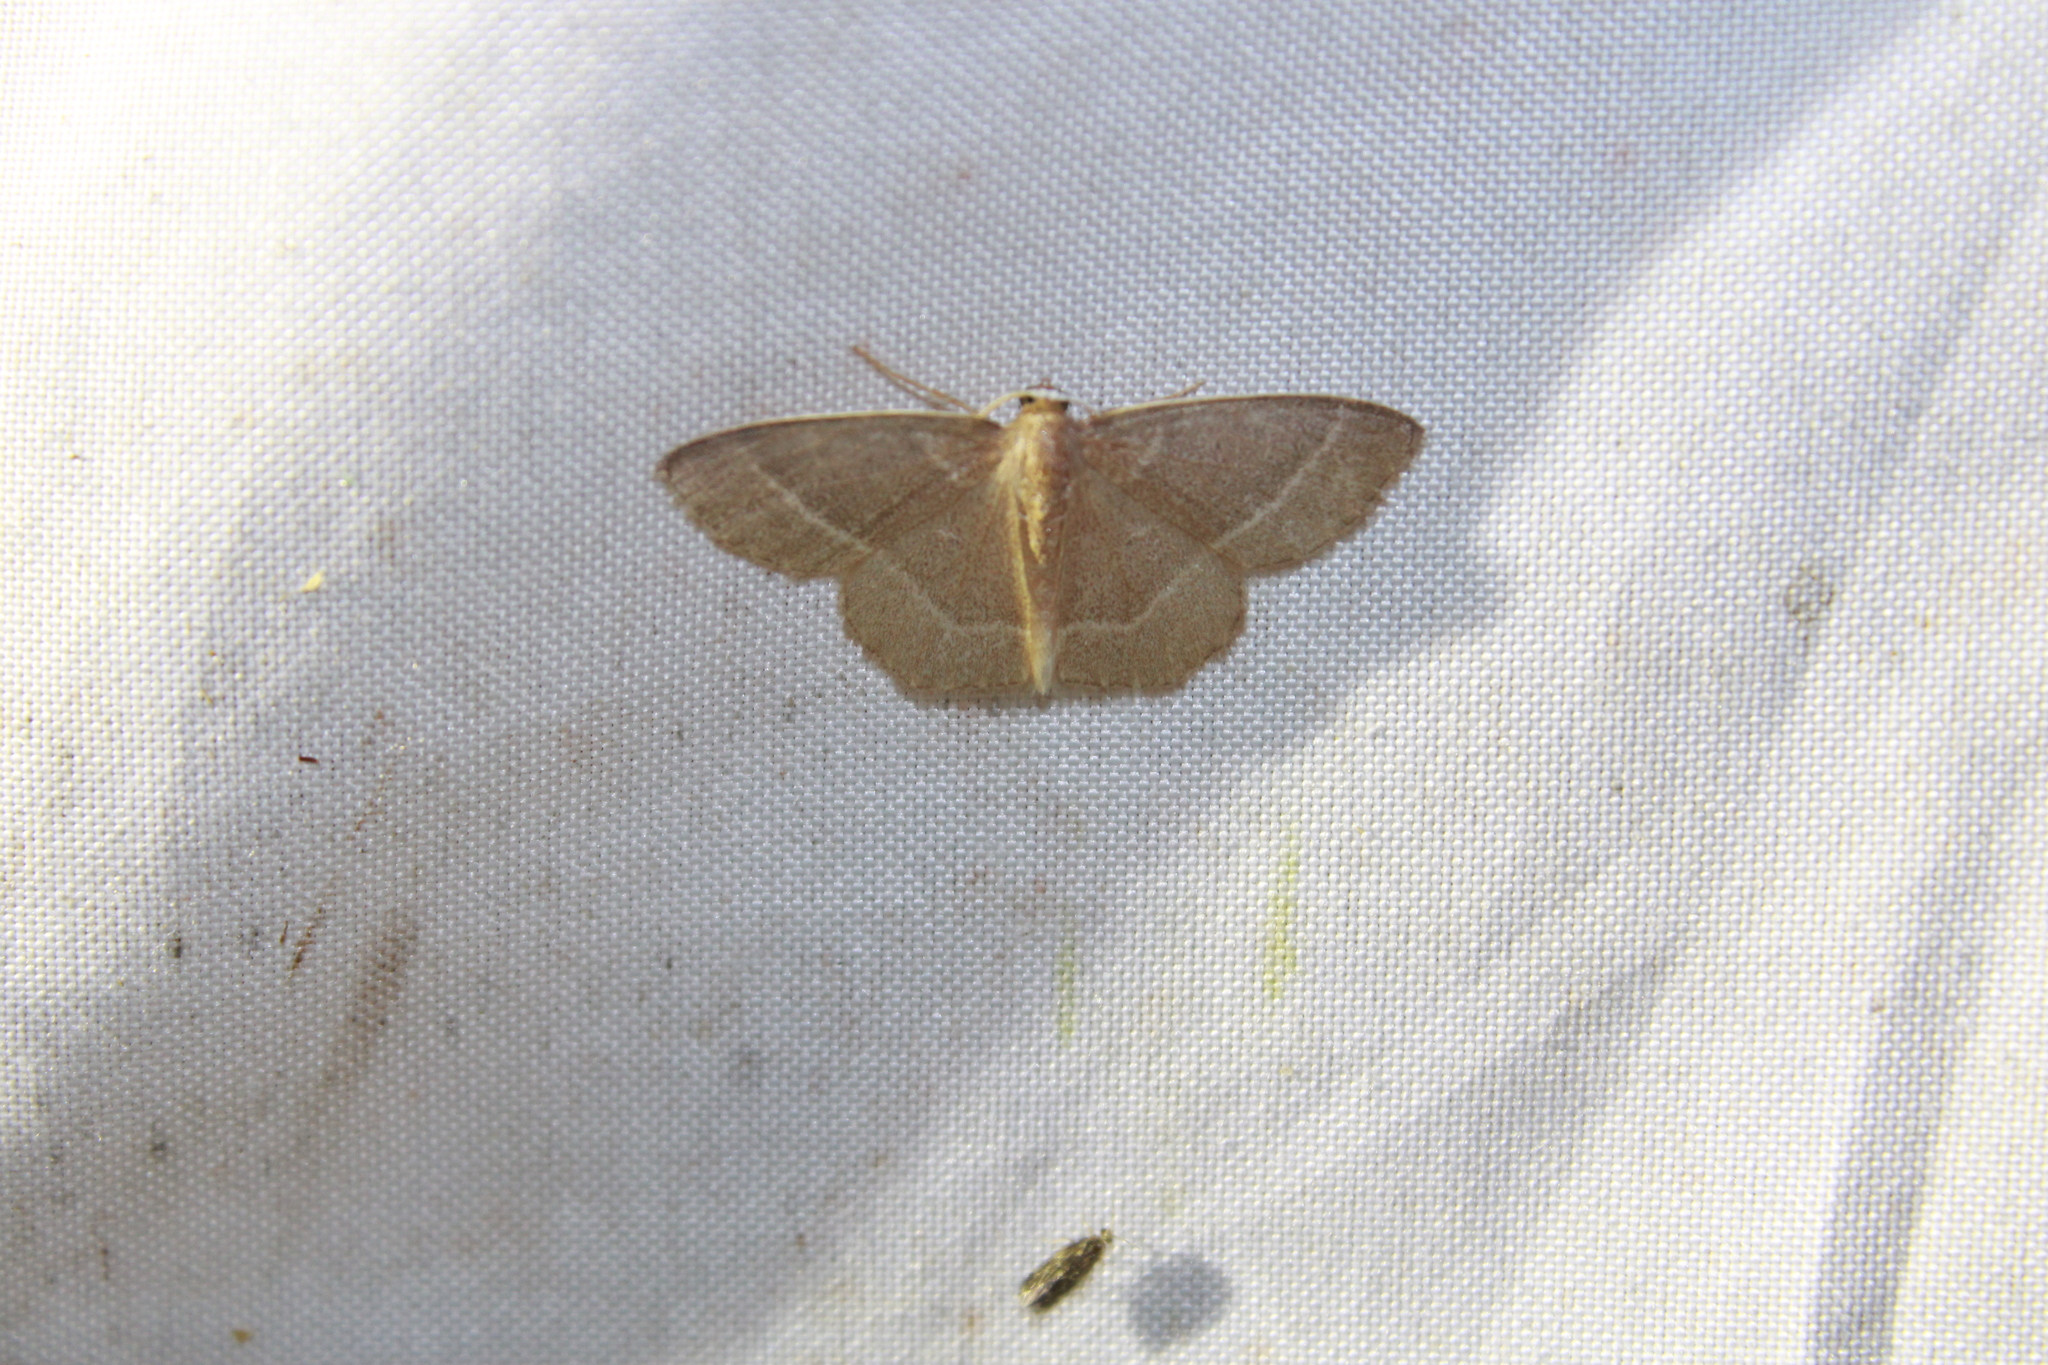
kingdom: Animalia
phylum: Arthropoda
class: Insecta
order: Lepidoptera
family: Geometridae
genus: Nemoria
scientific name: Nemoria bistriaria
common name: Red-fringed emerald
